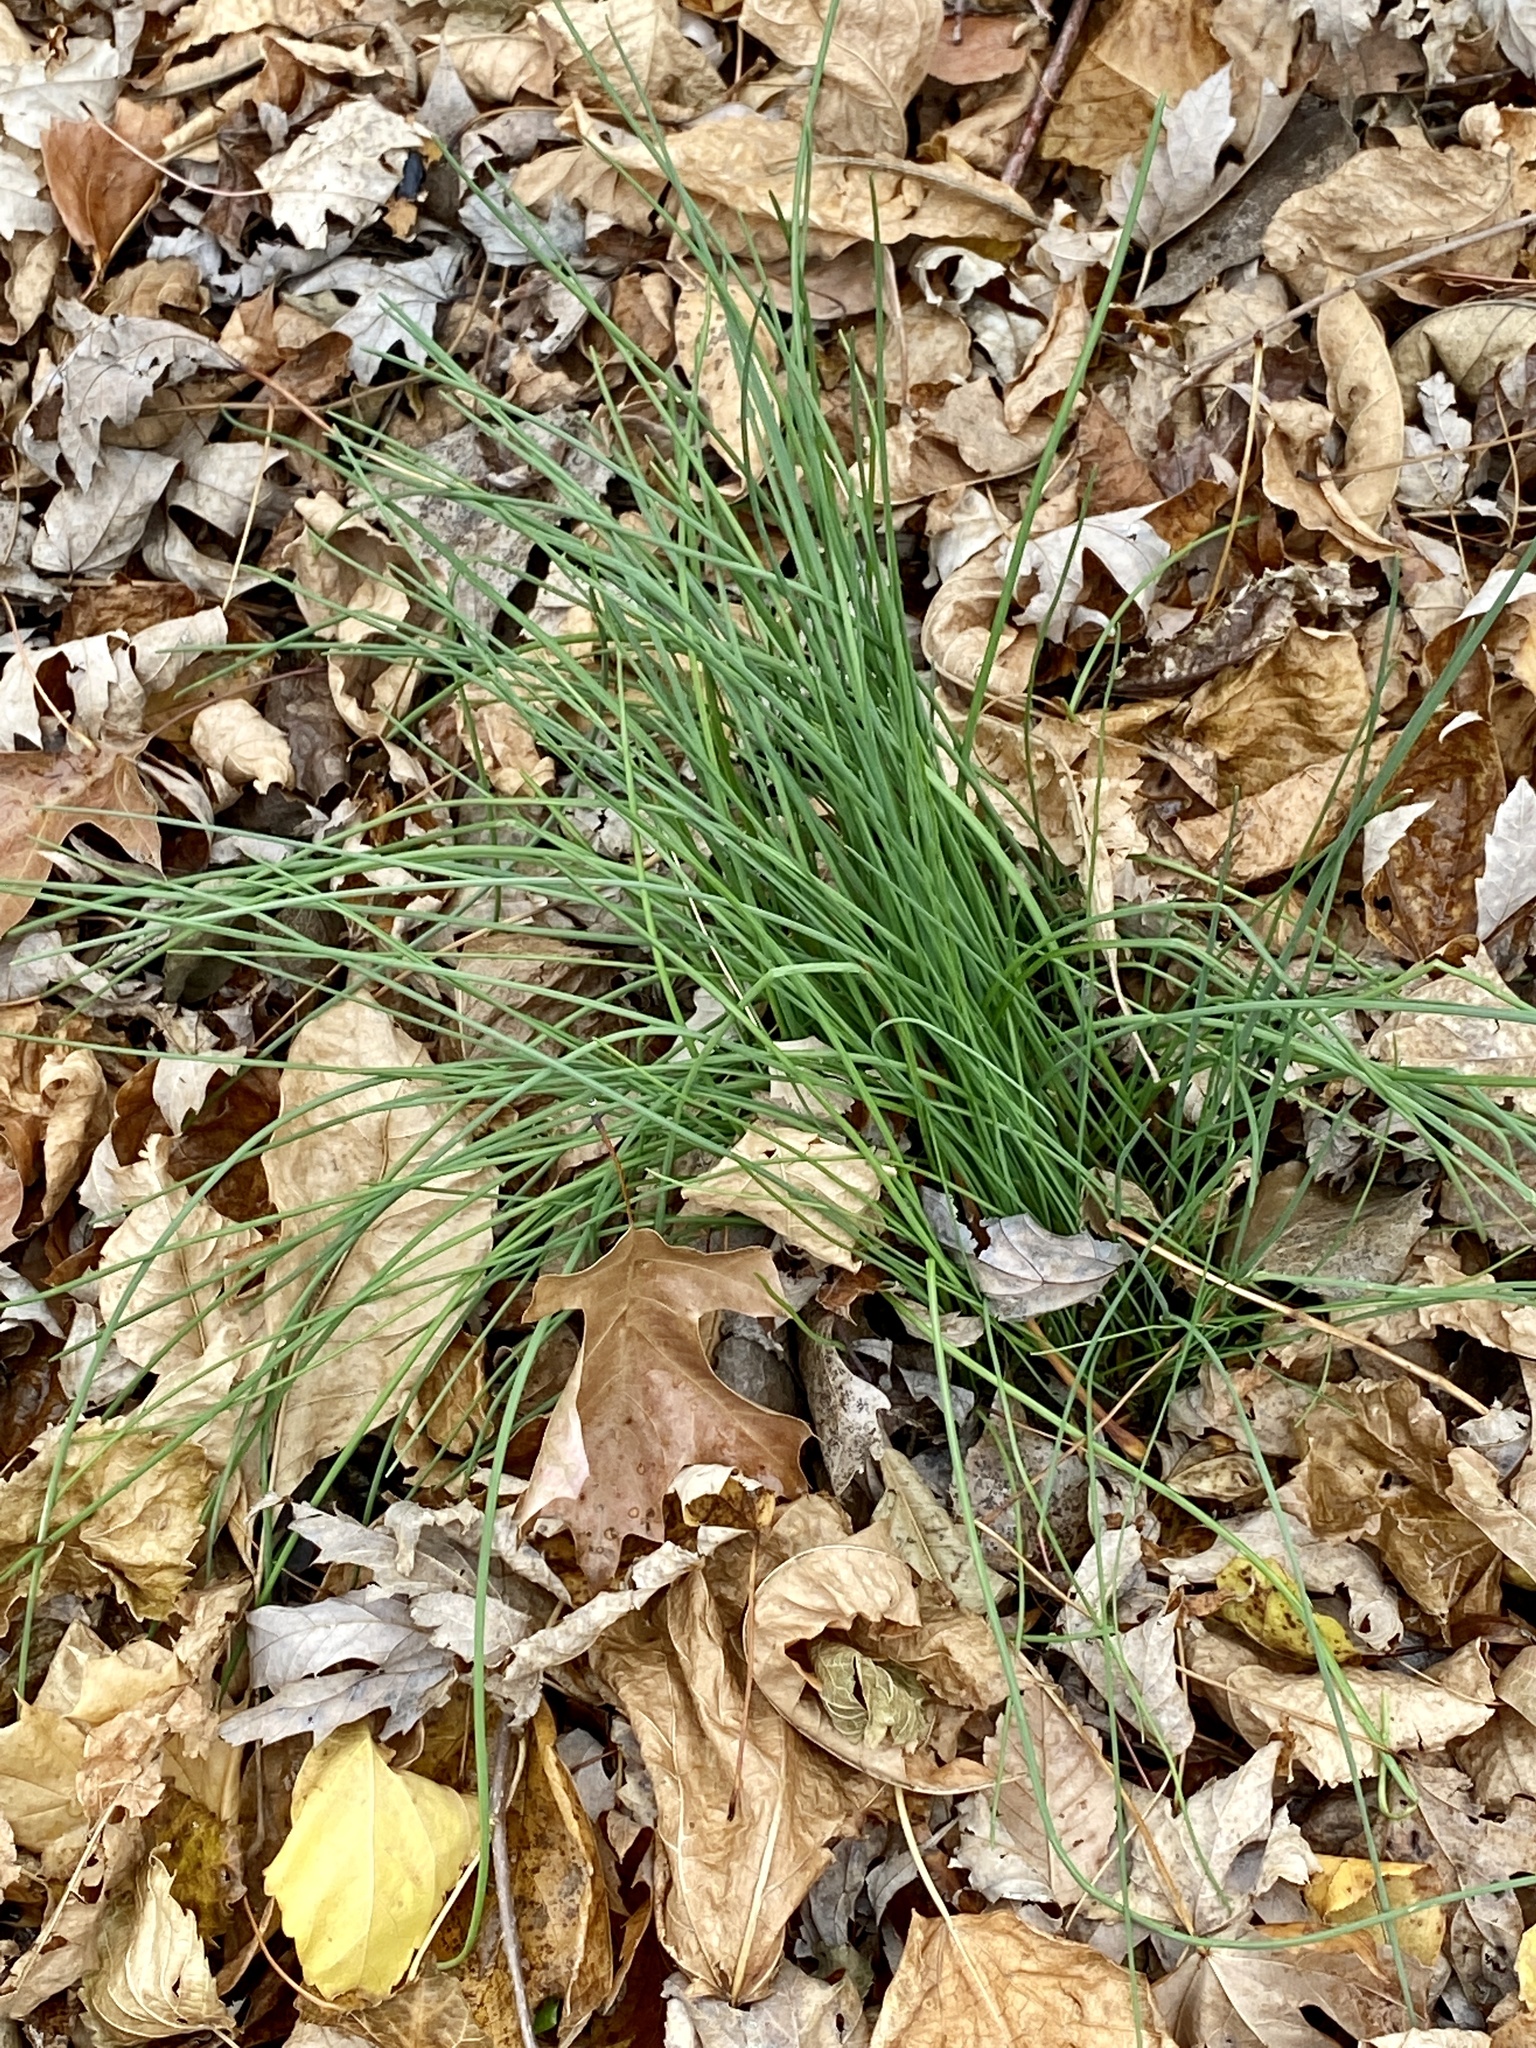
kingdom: Plantae
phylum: Tracheophyta
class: Liliopsida
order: Asparagales
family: Amaryllidaceae
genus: Allium
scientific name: Allium vineale
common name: Crow garlic
